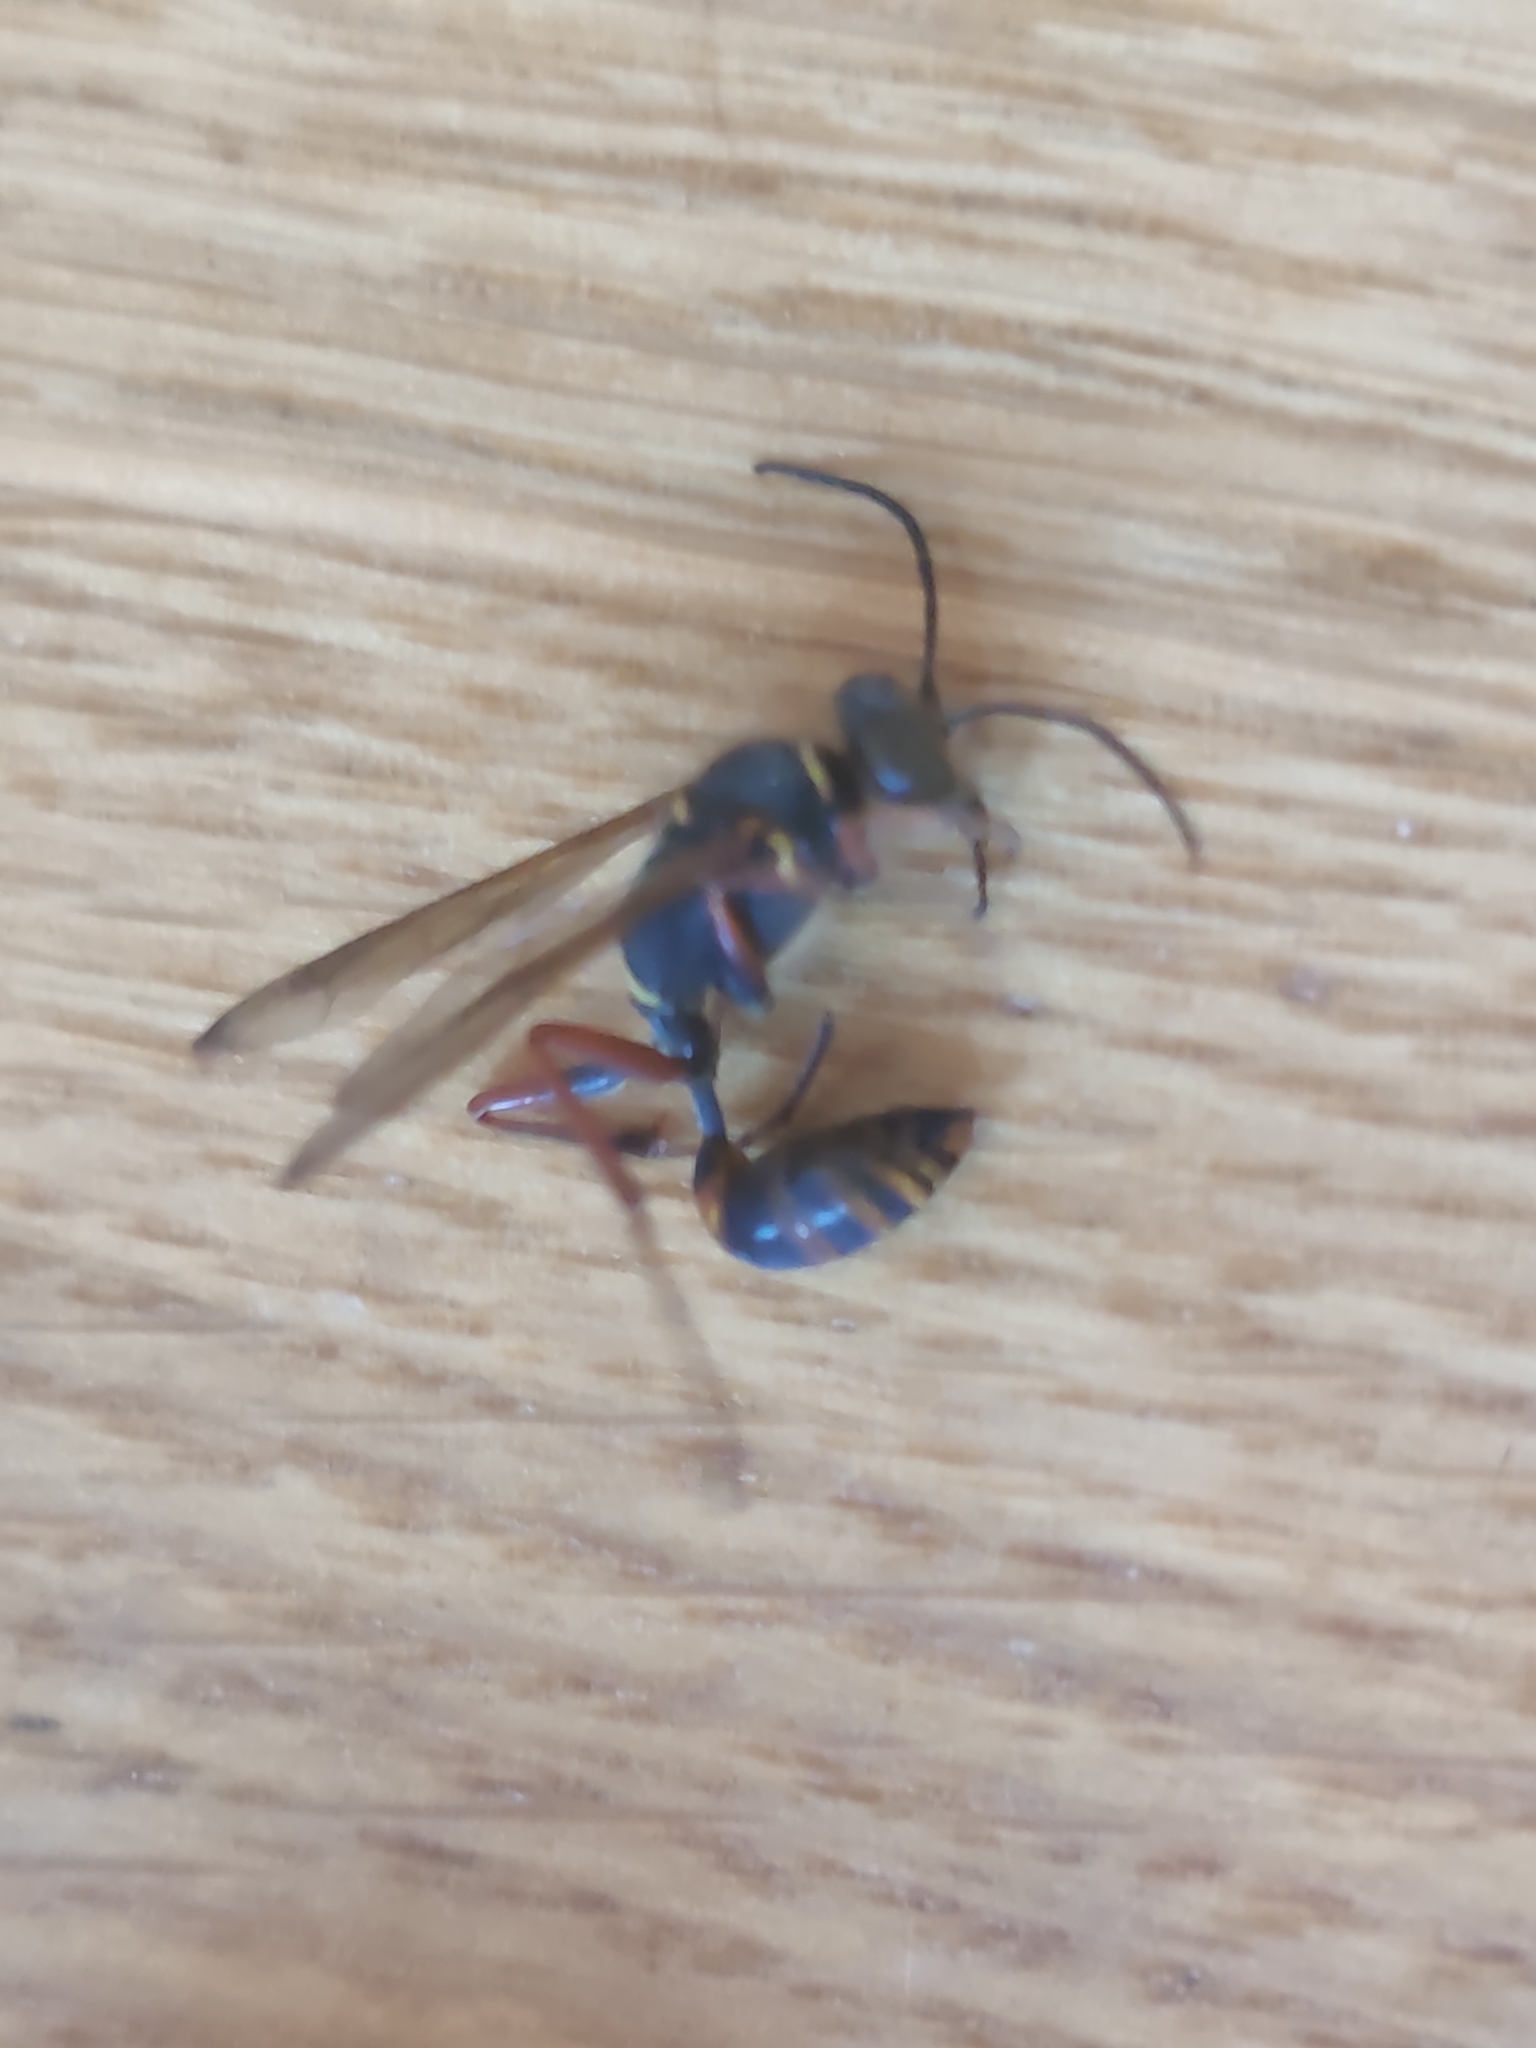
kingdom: Animalia
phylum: Arthropoda
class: Insecta
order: Hymenoptera
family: Sphecidae
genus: Sceliphron
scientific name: Sceliphron curvatum
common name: Pèlopèe
